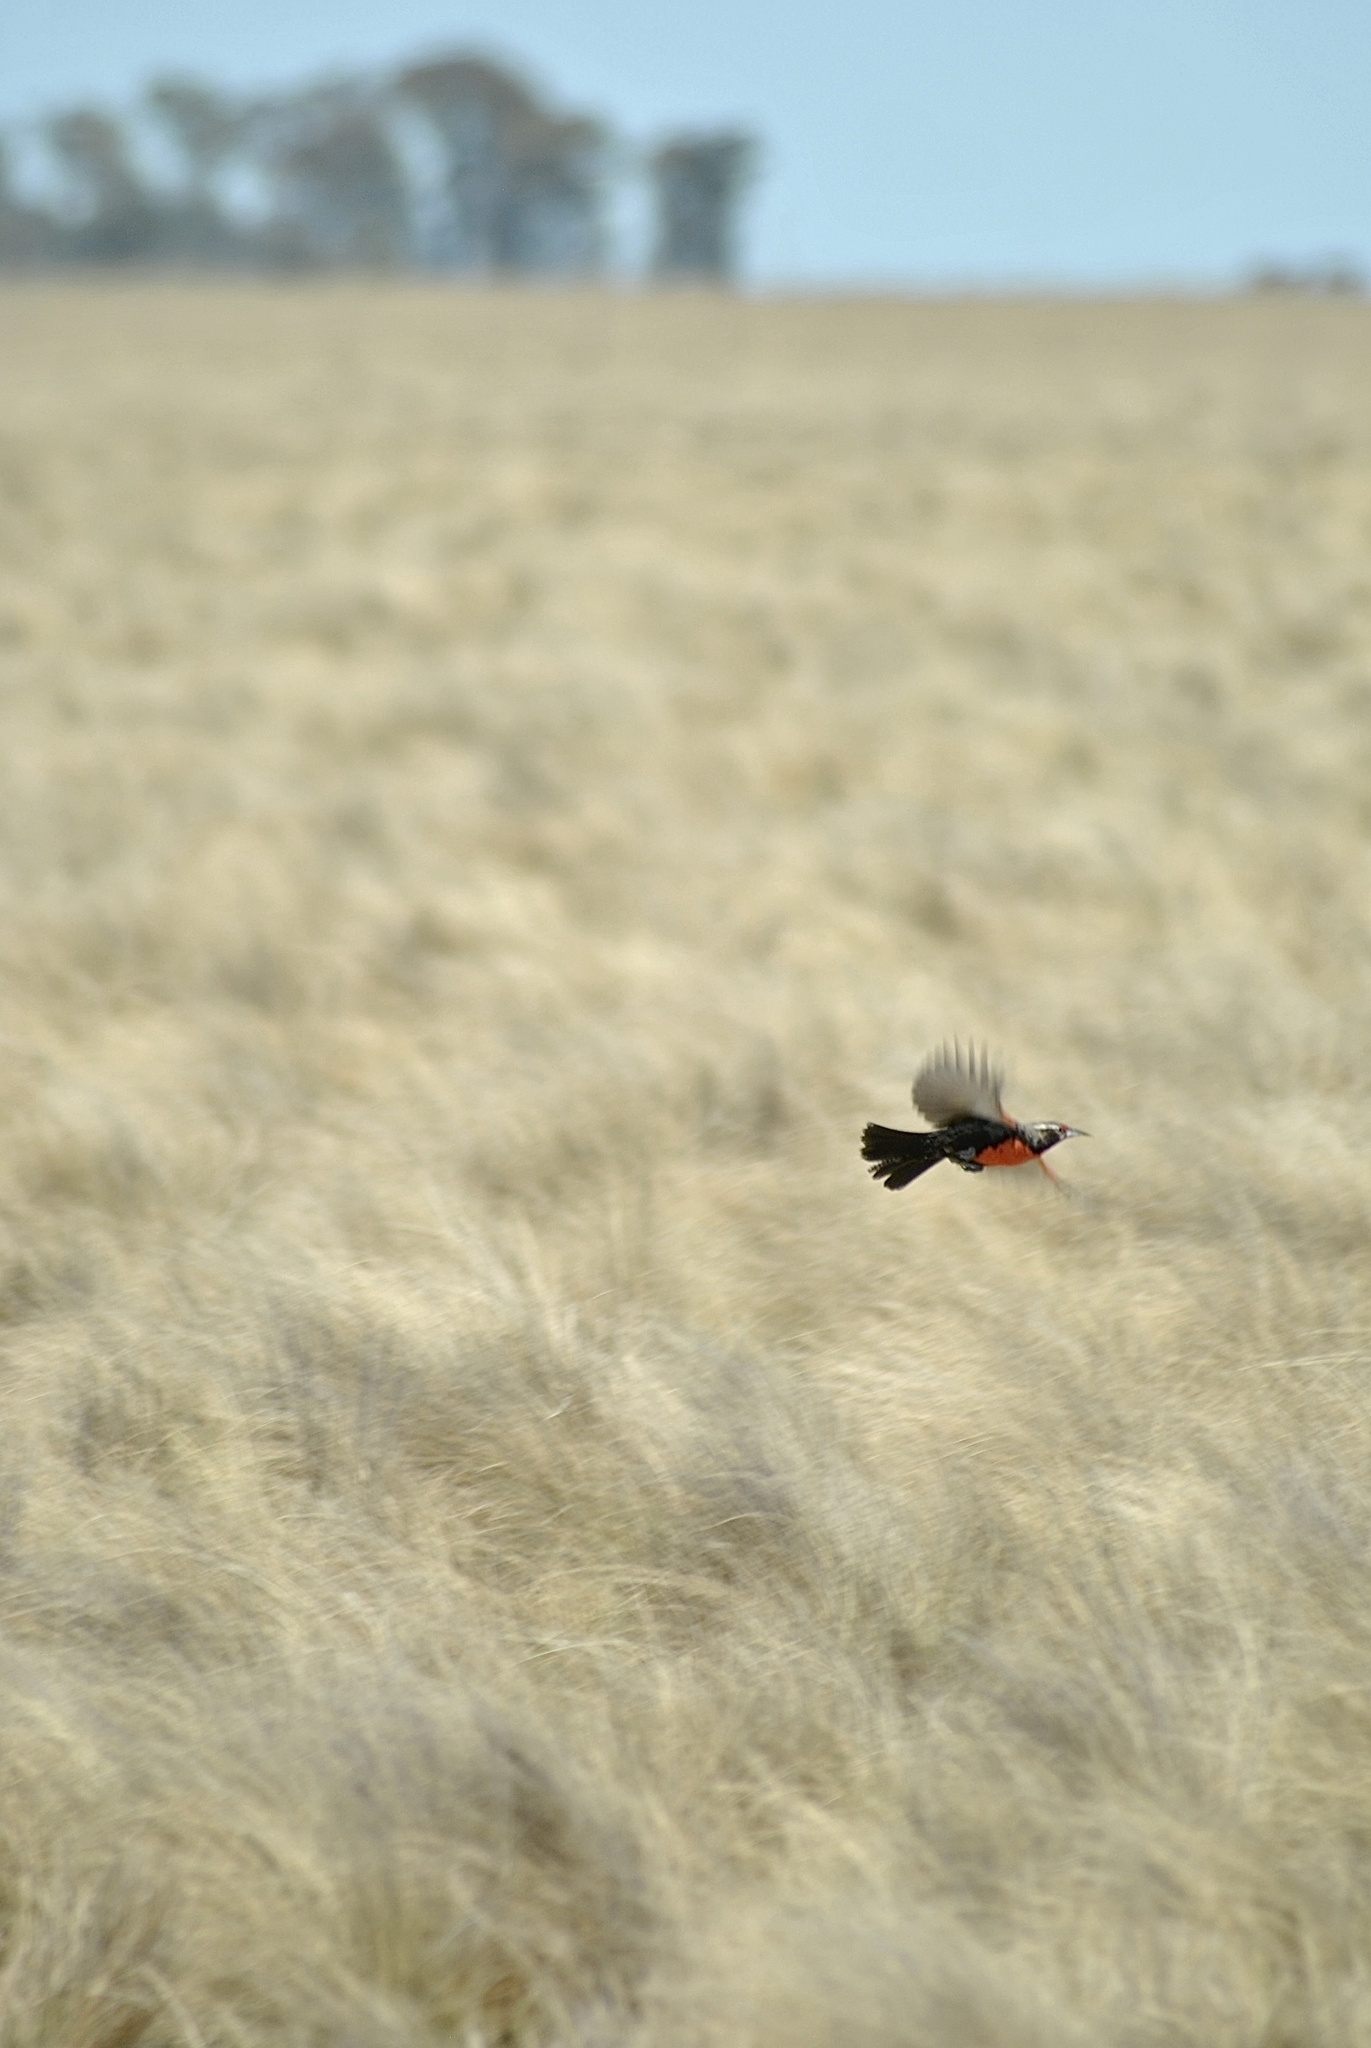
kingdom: Animalia
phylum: Chordata
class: Aves
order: Passeriformes
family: Icteridae
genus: Sturnella
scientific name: Sturnella loyca
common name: Long-tailed meadowlark
